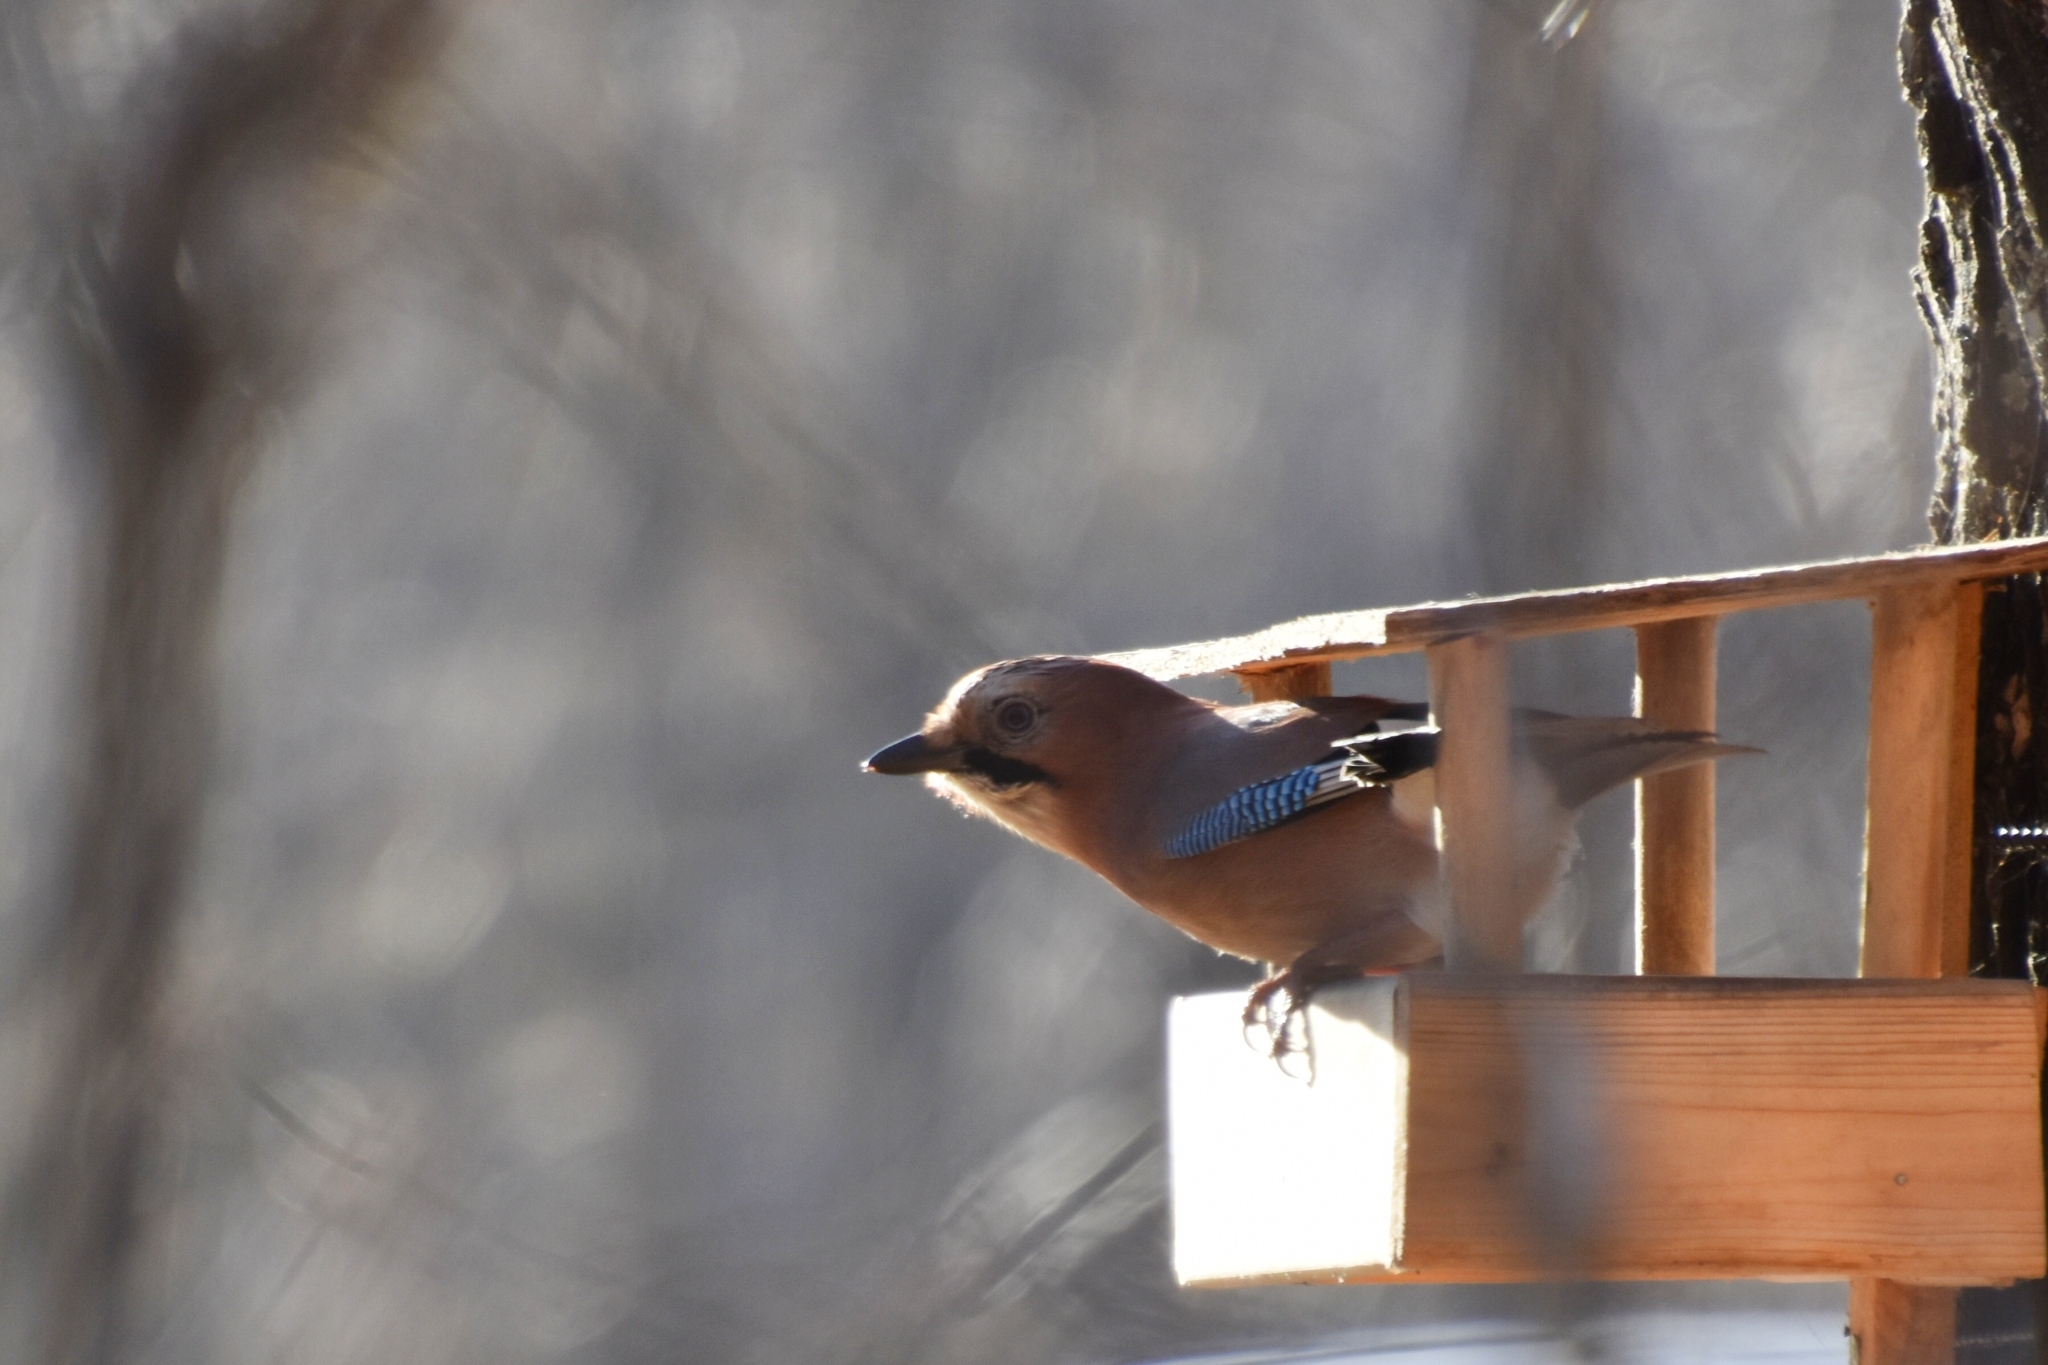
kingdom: Animalia
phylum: Chordata
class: Aves
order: Passeriformes
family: Corvidae
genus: Garrulus
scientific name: Garrulus glandarius
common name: Eurasian jay
